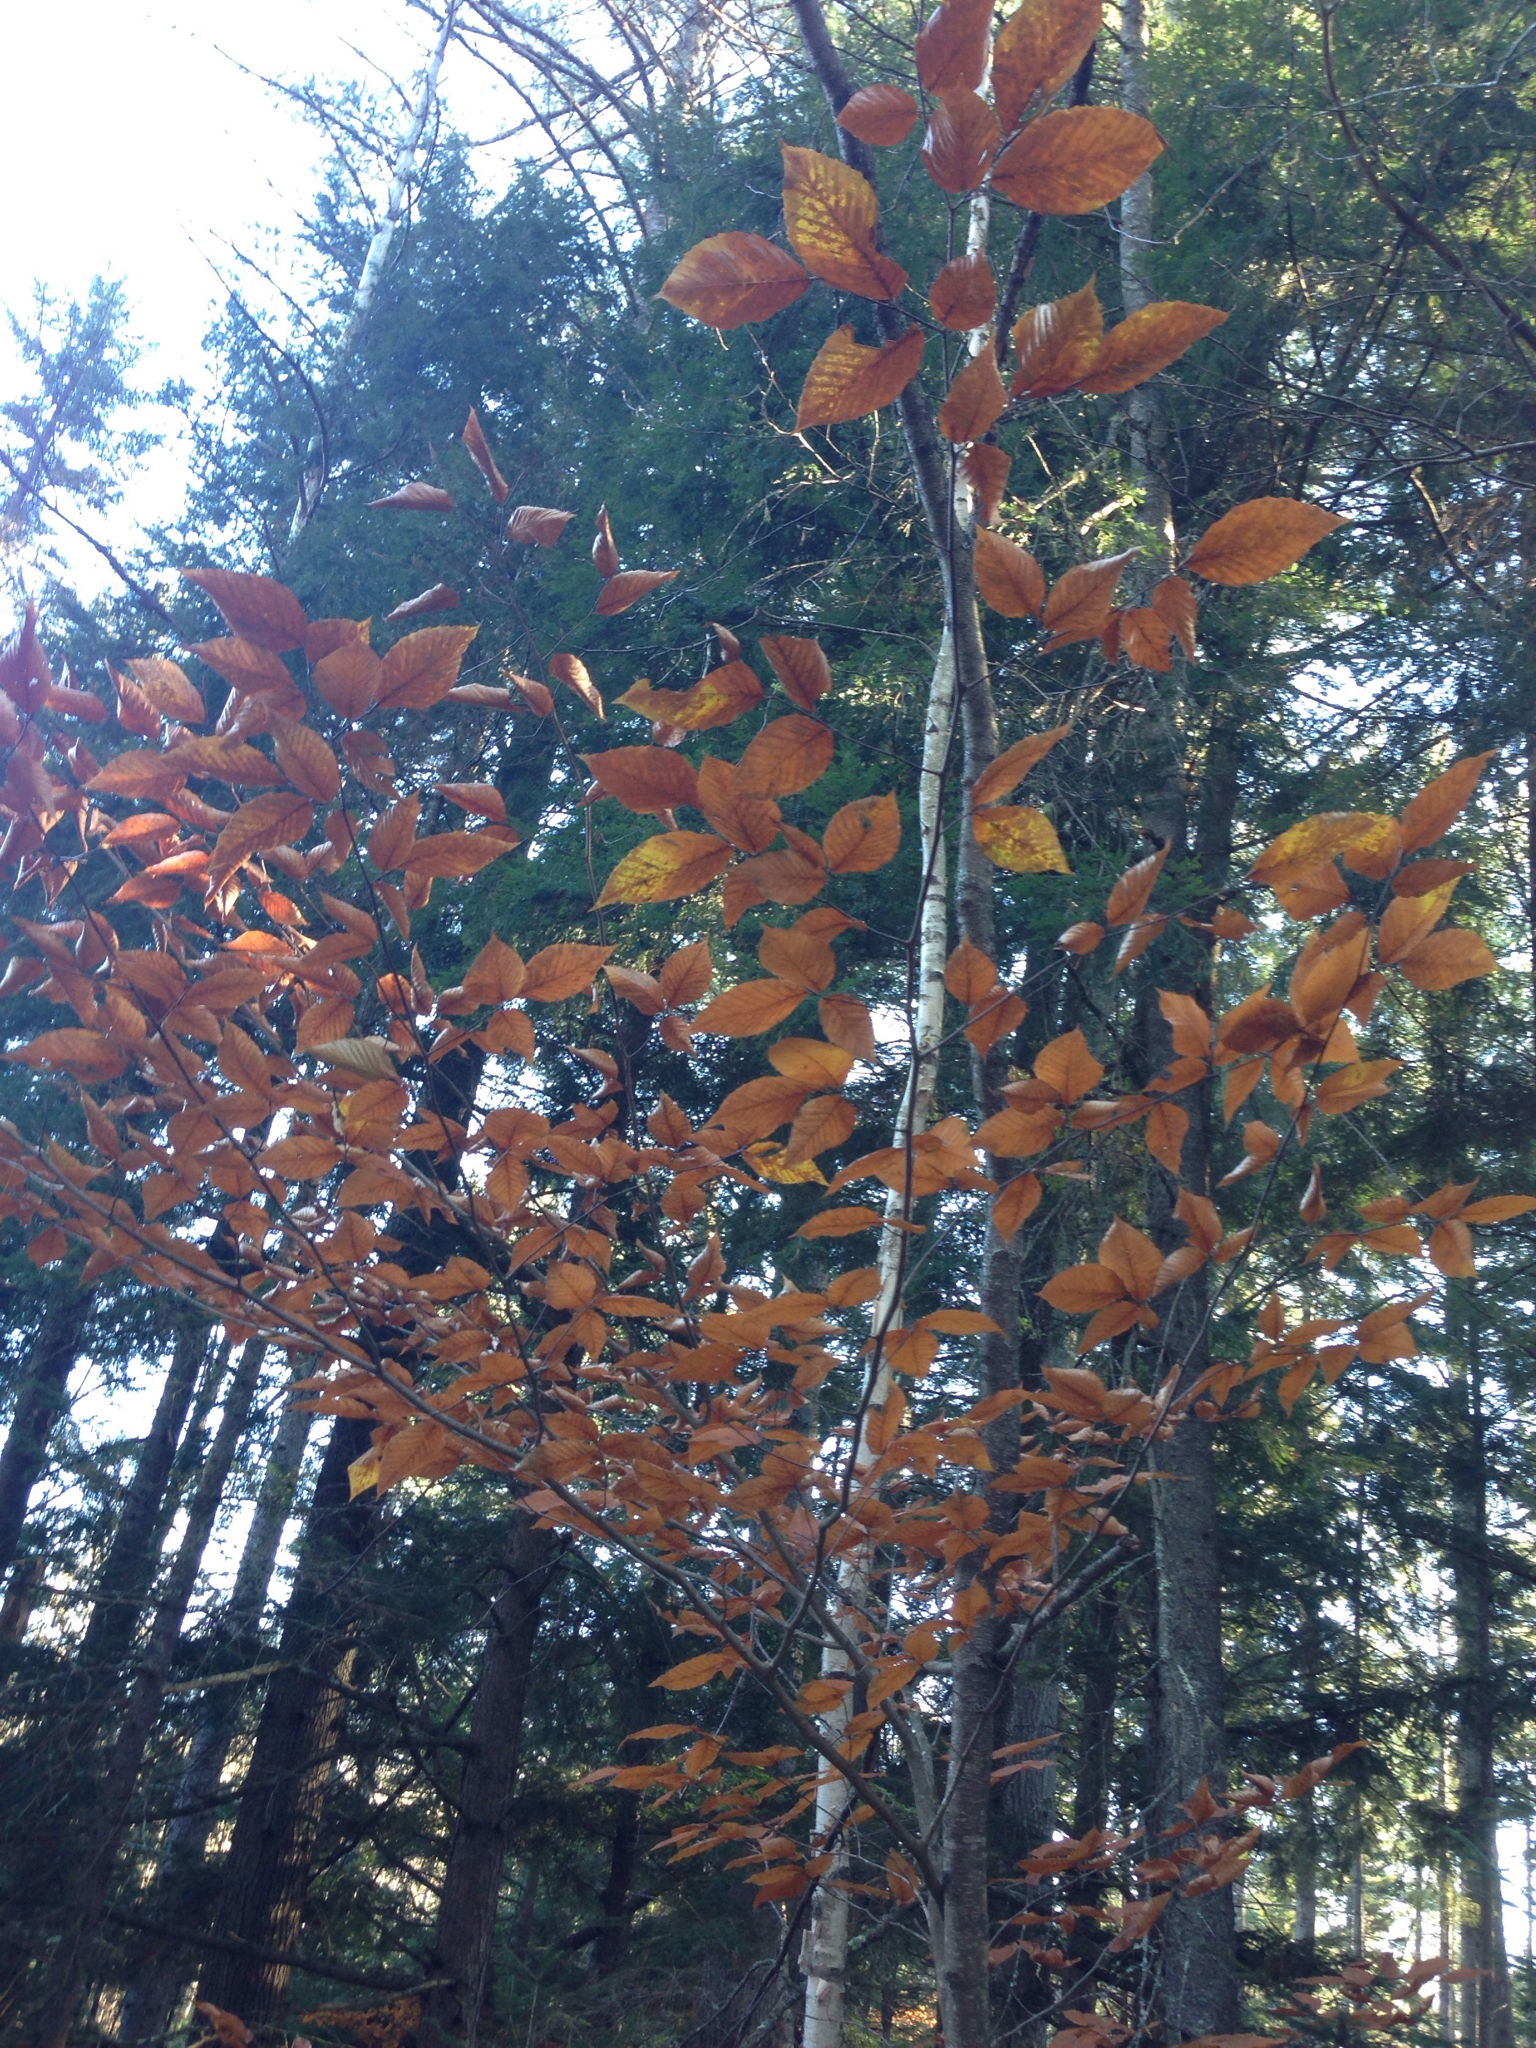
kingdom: Plantae
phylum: Tracheophyta
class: Magnoliopsida
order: Fagales
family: Fagaceae
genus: Fagus
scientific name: Fagus grandifolia
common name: American beech
